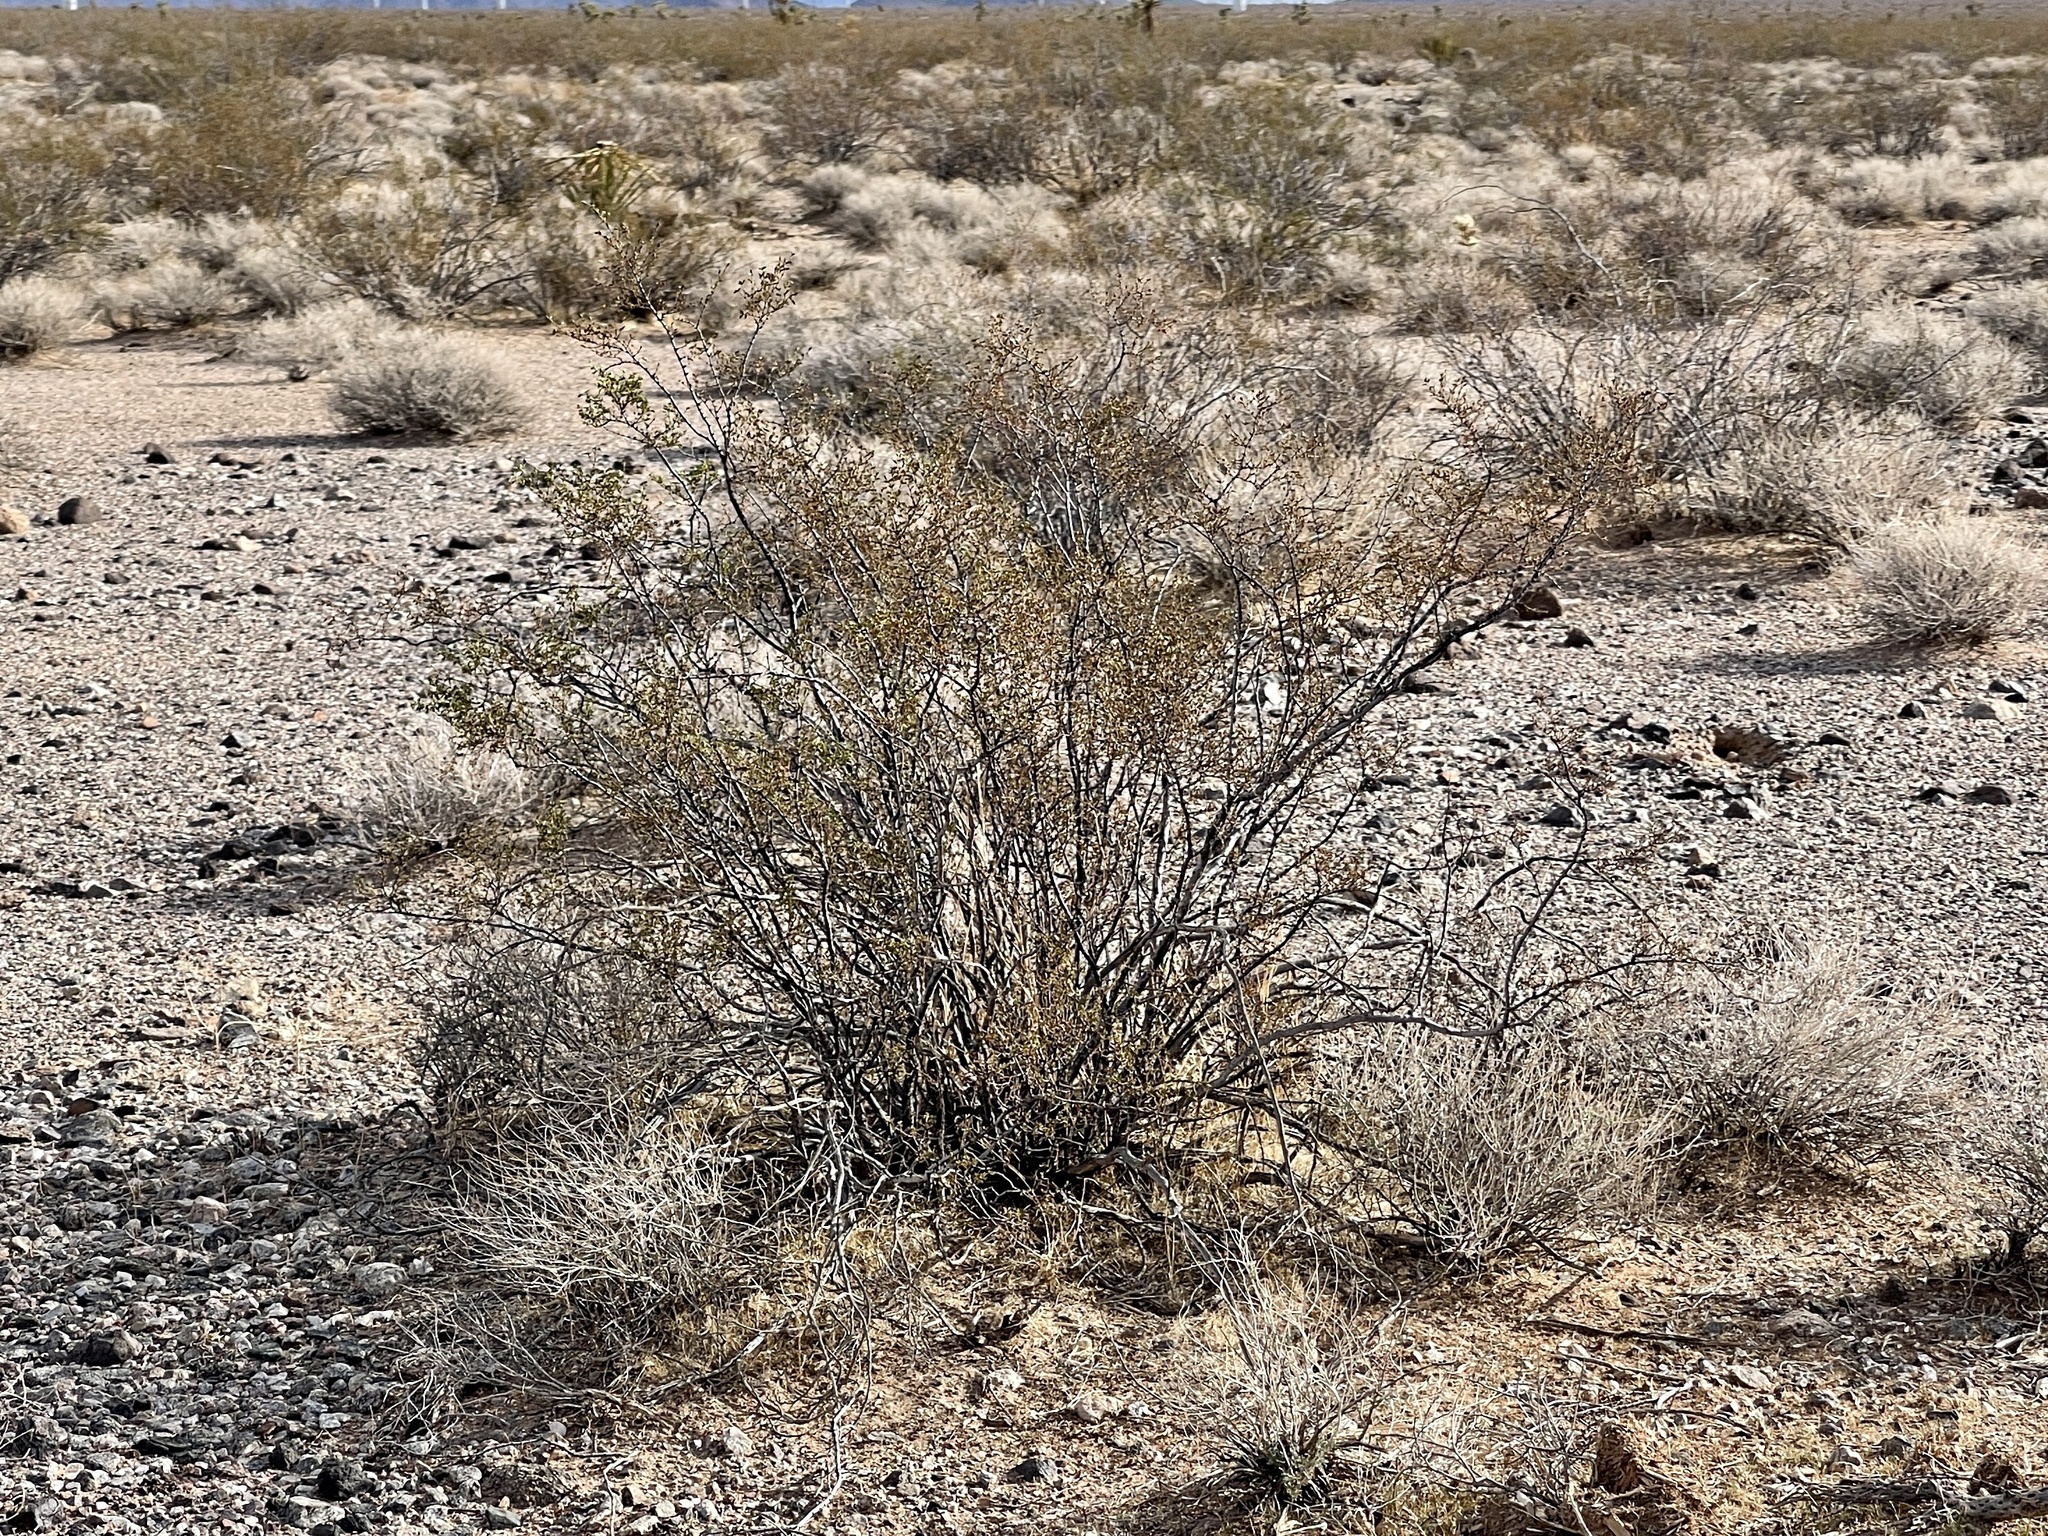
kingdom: Plantae
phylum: Tracheophyta
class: Magnoliopsida
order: Zygophyllales
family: Zygophyllaceae
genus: Larrea
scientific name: Larrea tridentata
